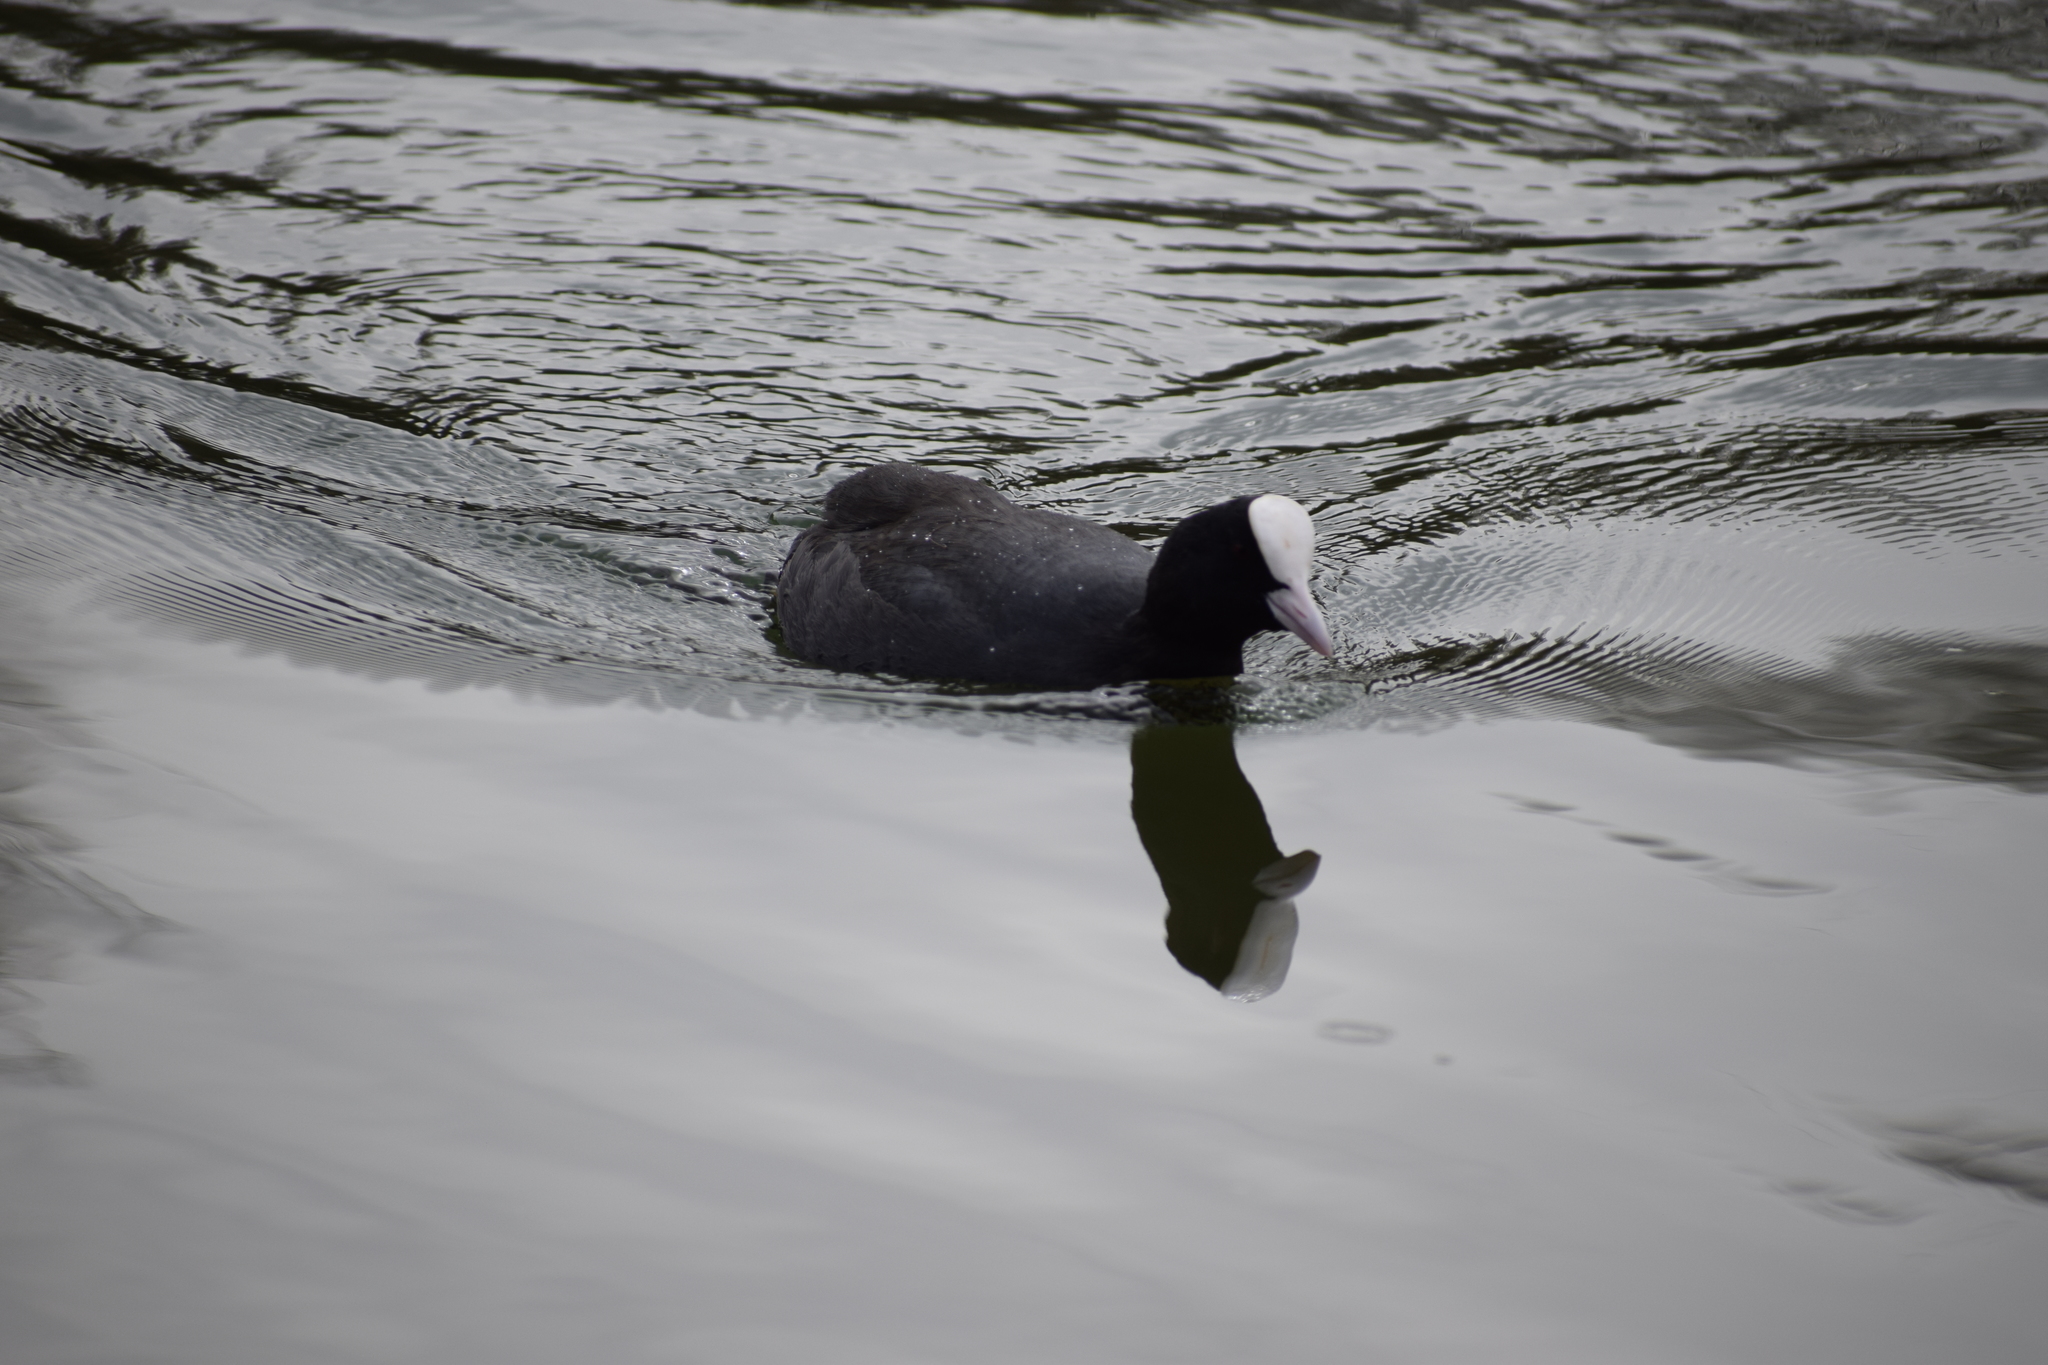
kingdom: Animalia
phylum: Chordata
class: Aves
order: Gruiformes
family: Rallidae
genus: Fulica
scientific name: Fulica atra
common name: Eurasian coot
